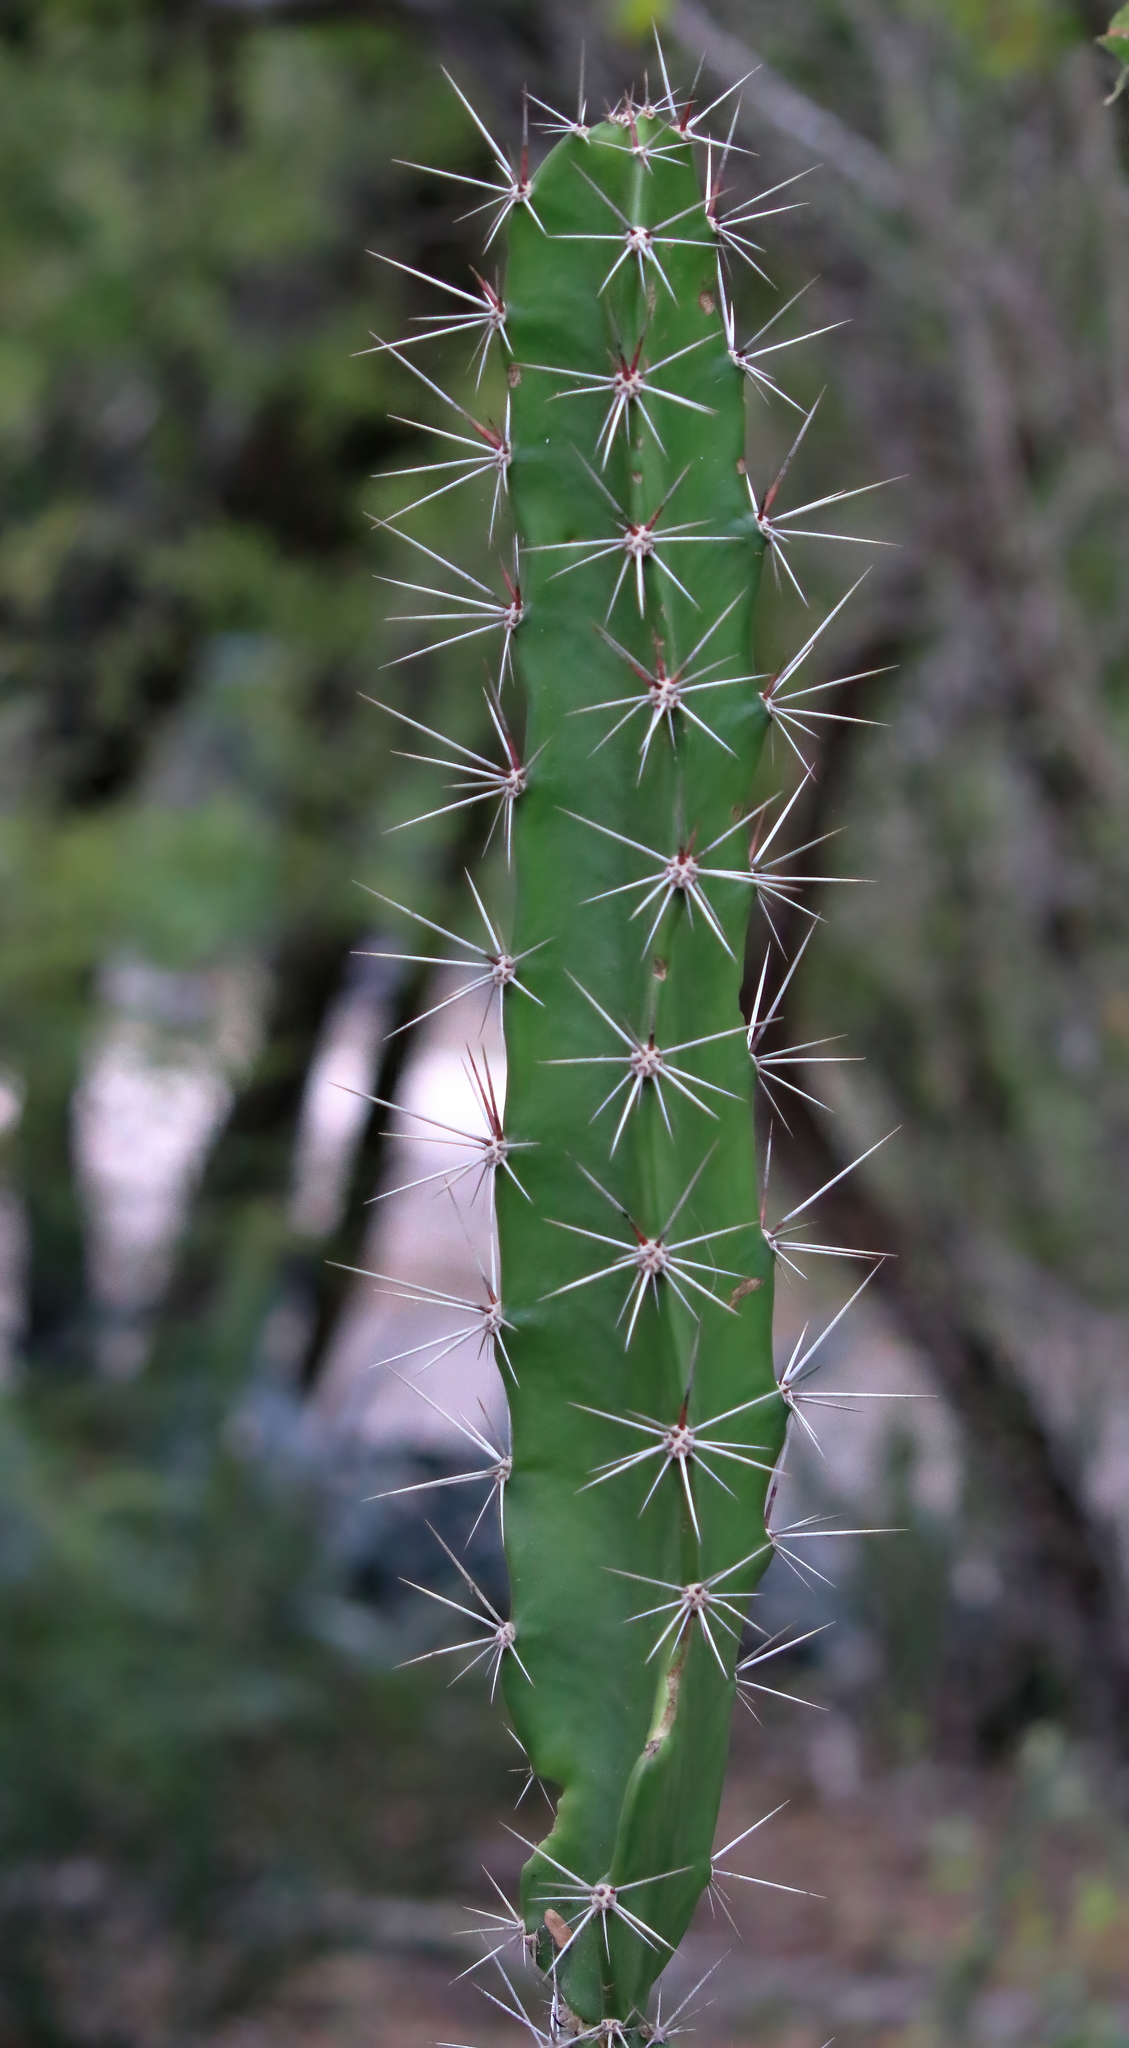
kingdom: Plantae
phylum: Tracheophyta
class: Magnoliopsida
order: Caryophyllales
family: Cactaceae
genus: Acanthocereus
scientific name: Acanthocereus tetragonus
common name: Triangle cactus
